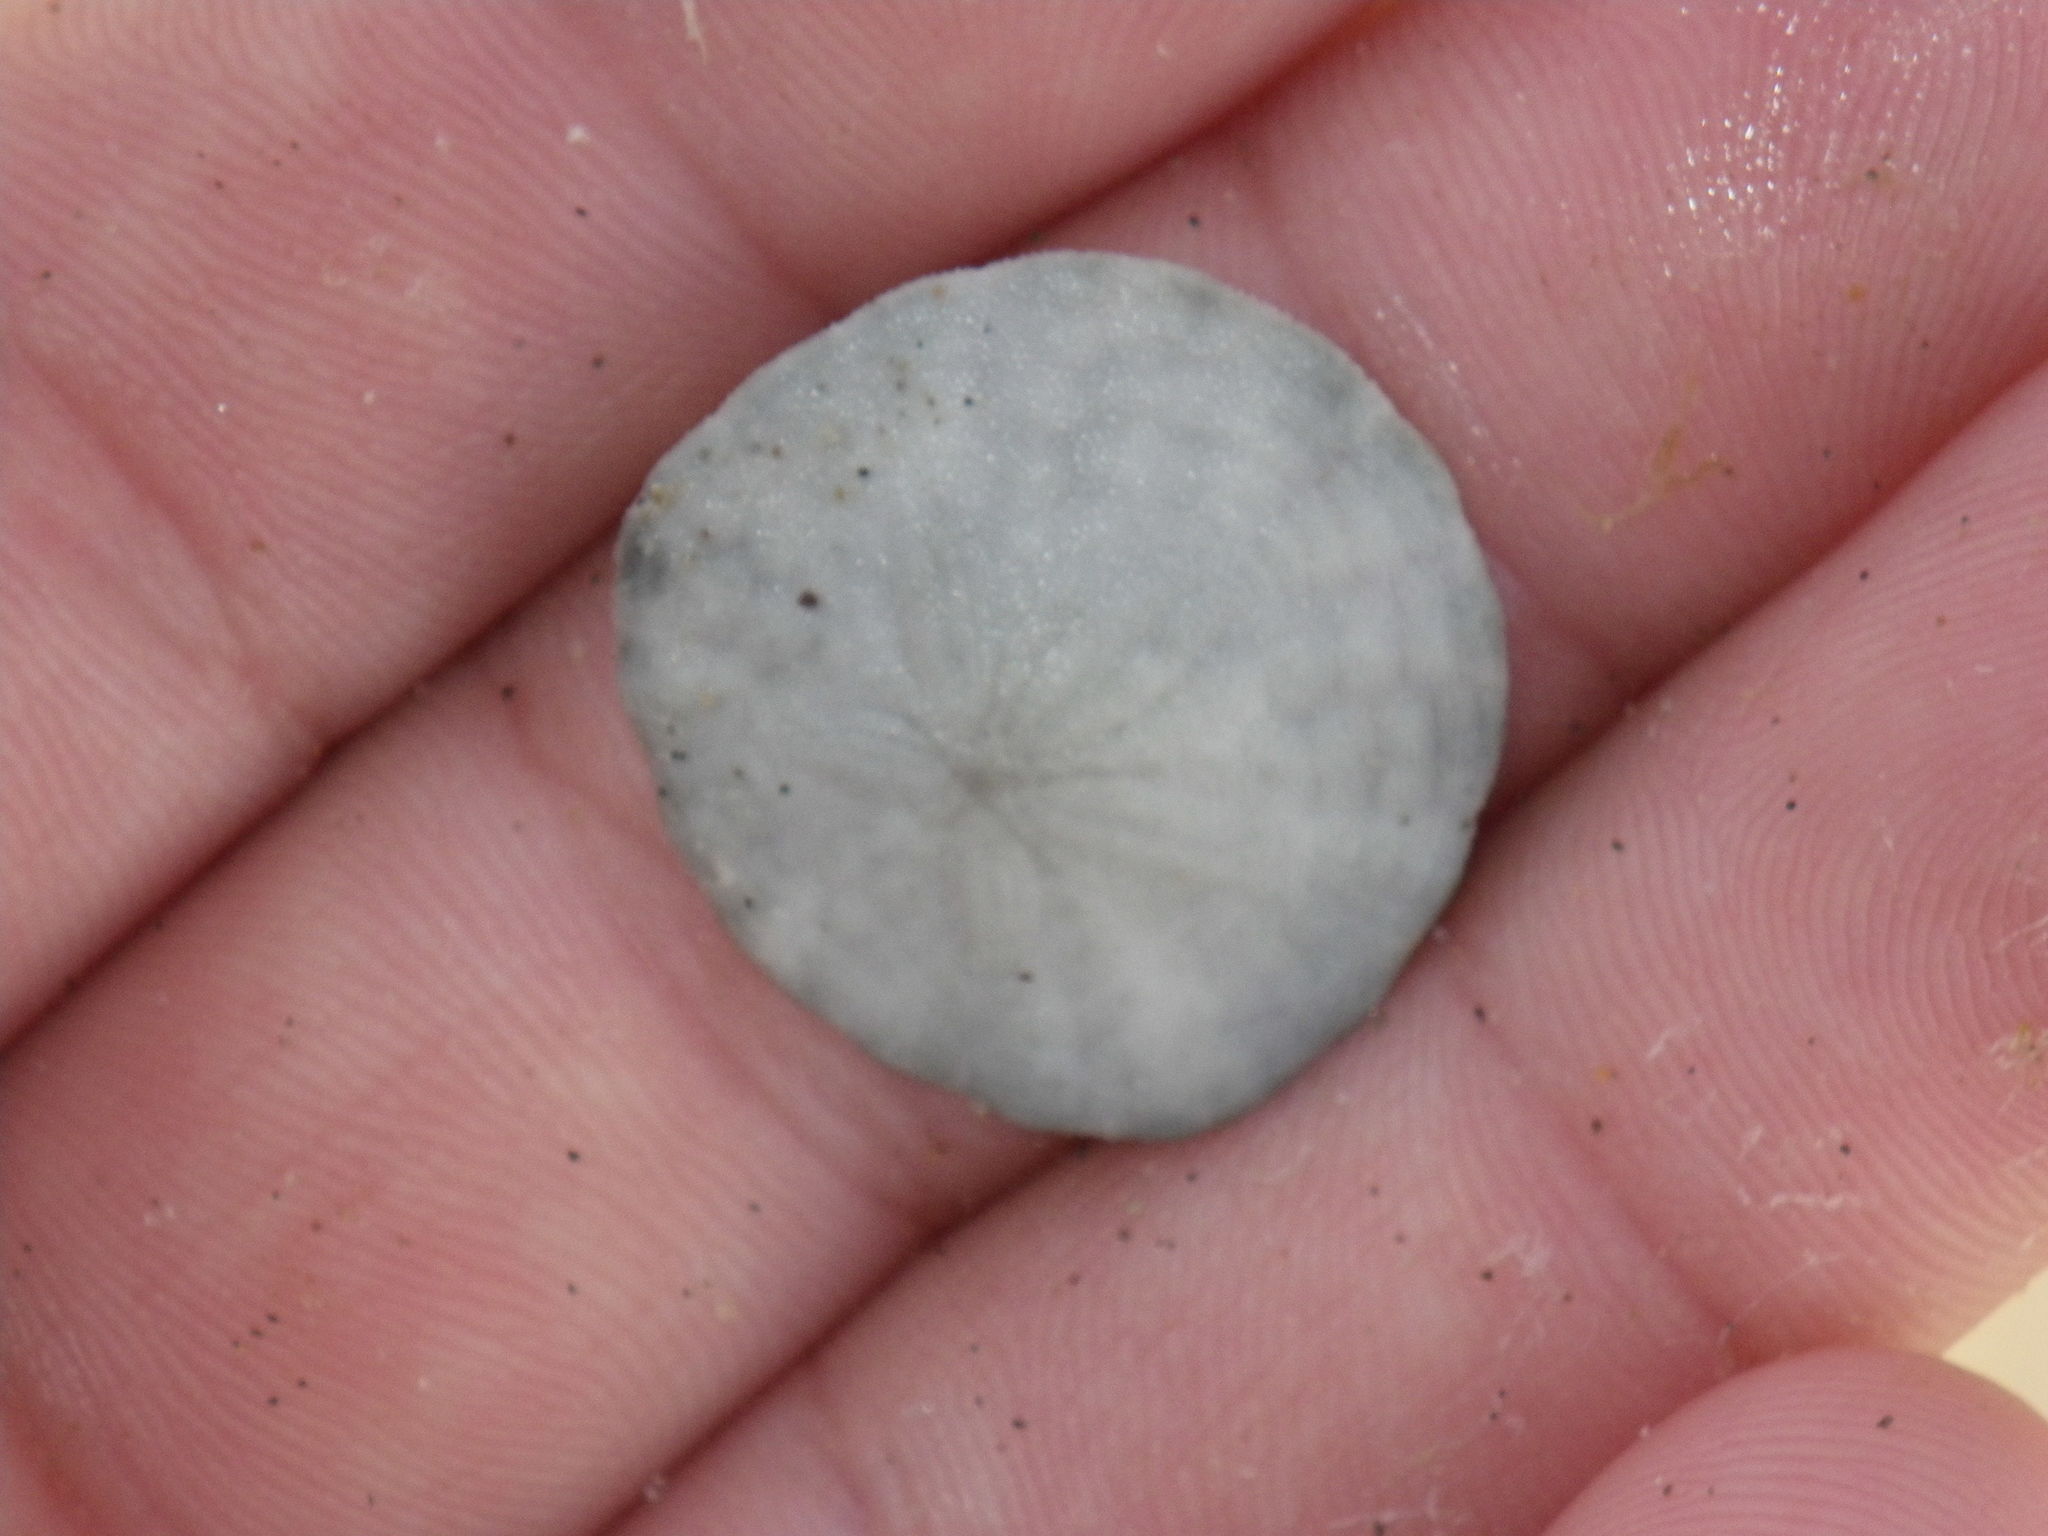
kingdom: Animalia
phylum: Echinodermata
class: Echinoidea
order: Echinolampadacea
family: Dendrasteridae
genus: Dendraster
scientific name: Dendraster excentricus
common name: Eccentric sand dollar sea urchin
